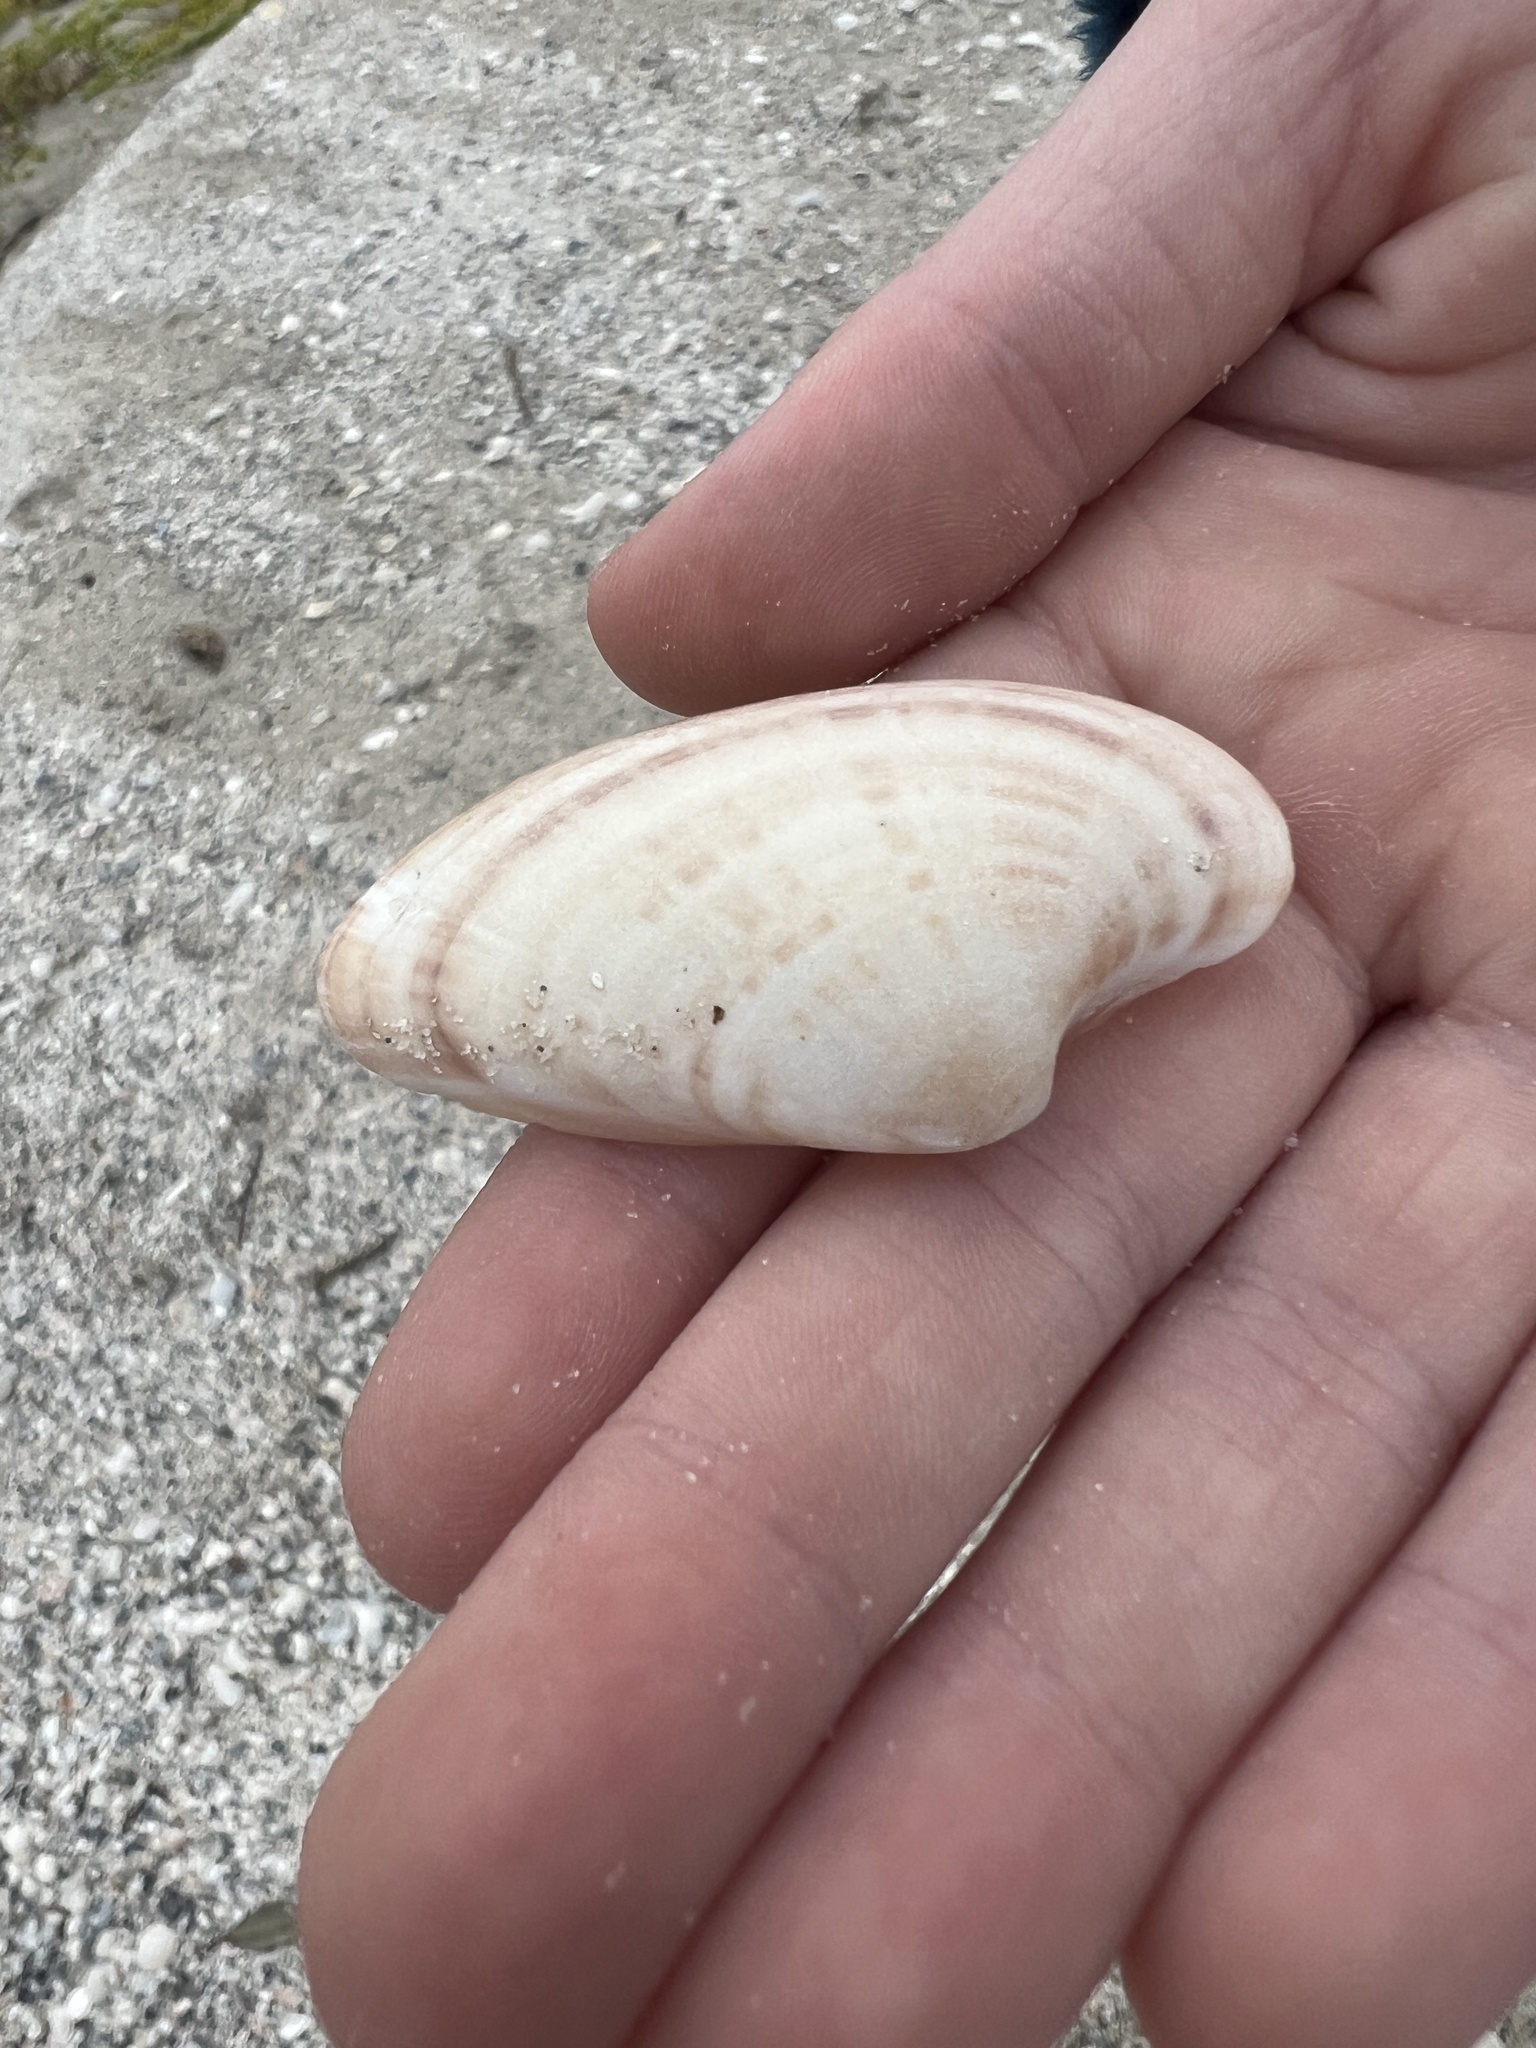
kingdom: Animalia
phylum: Mollusca
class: Bivalvia
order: Venerida
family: Veneridae
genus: Macrocallista
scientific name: Macrocallista nimbosa
